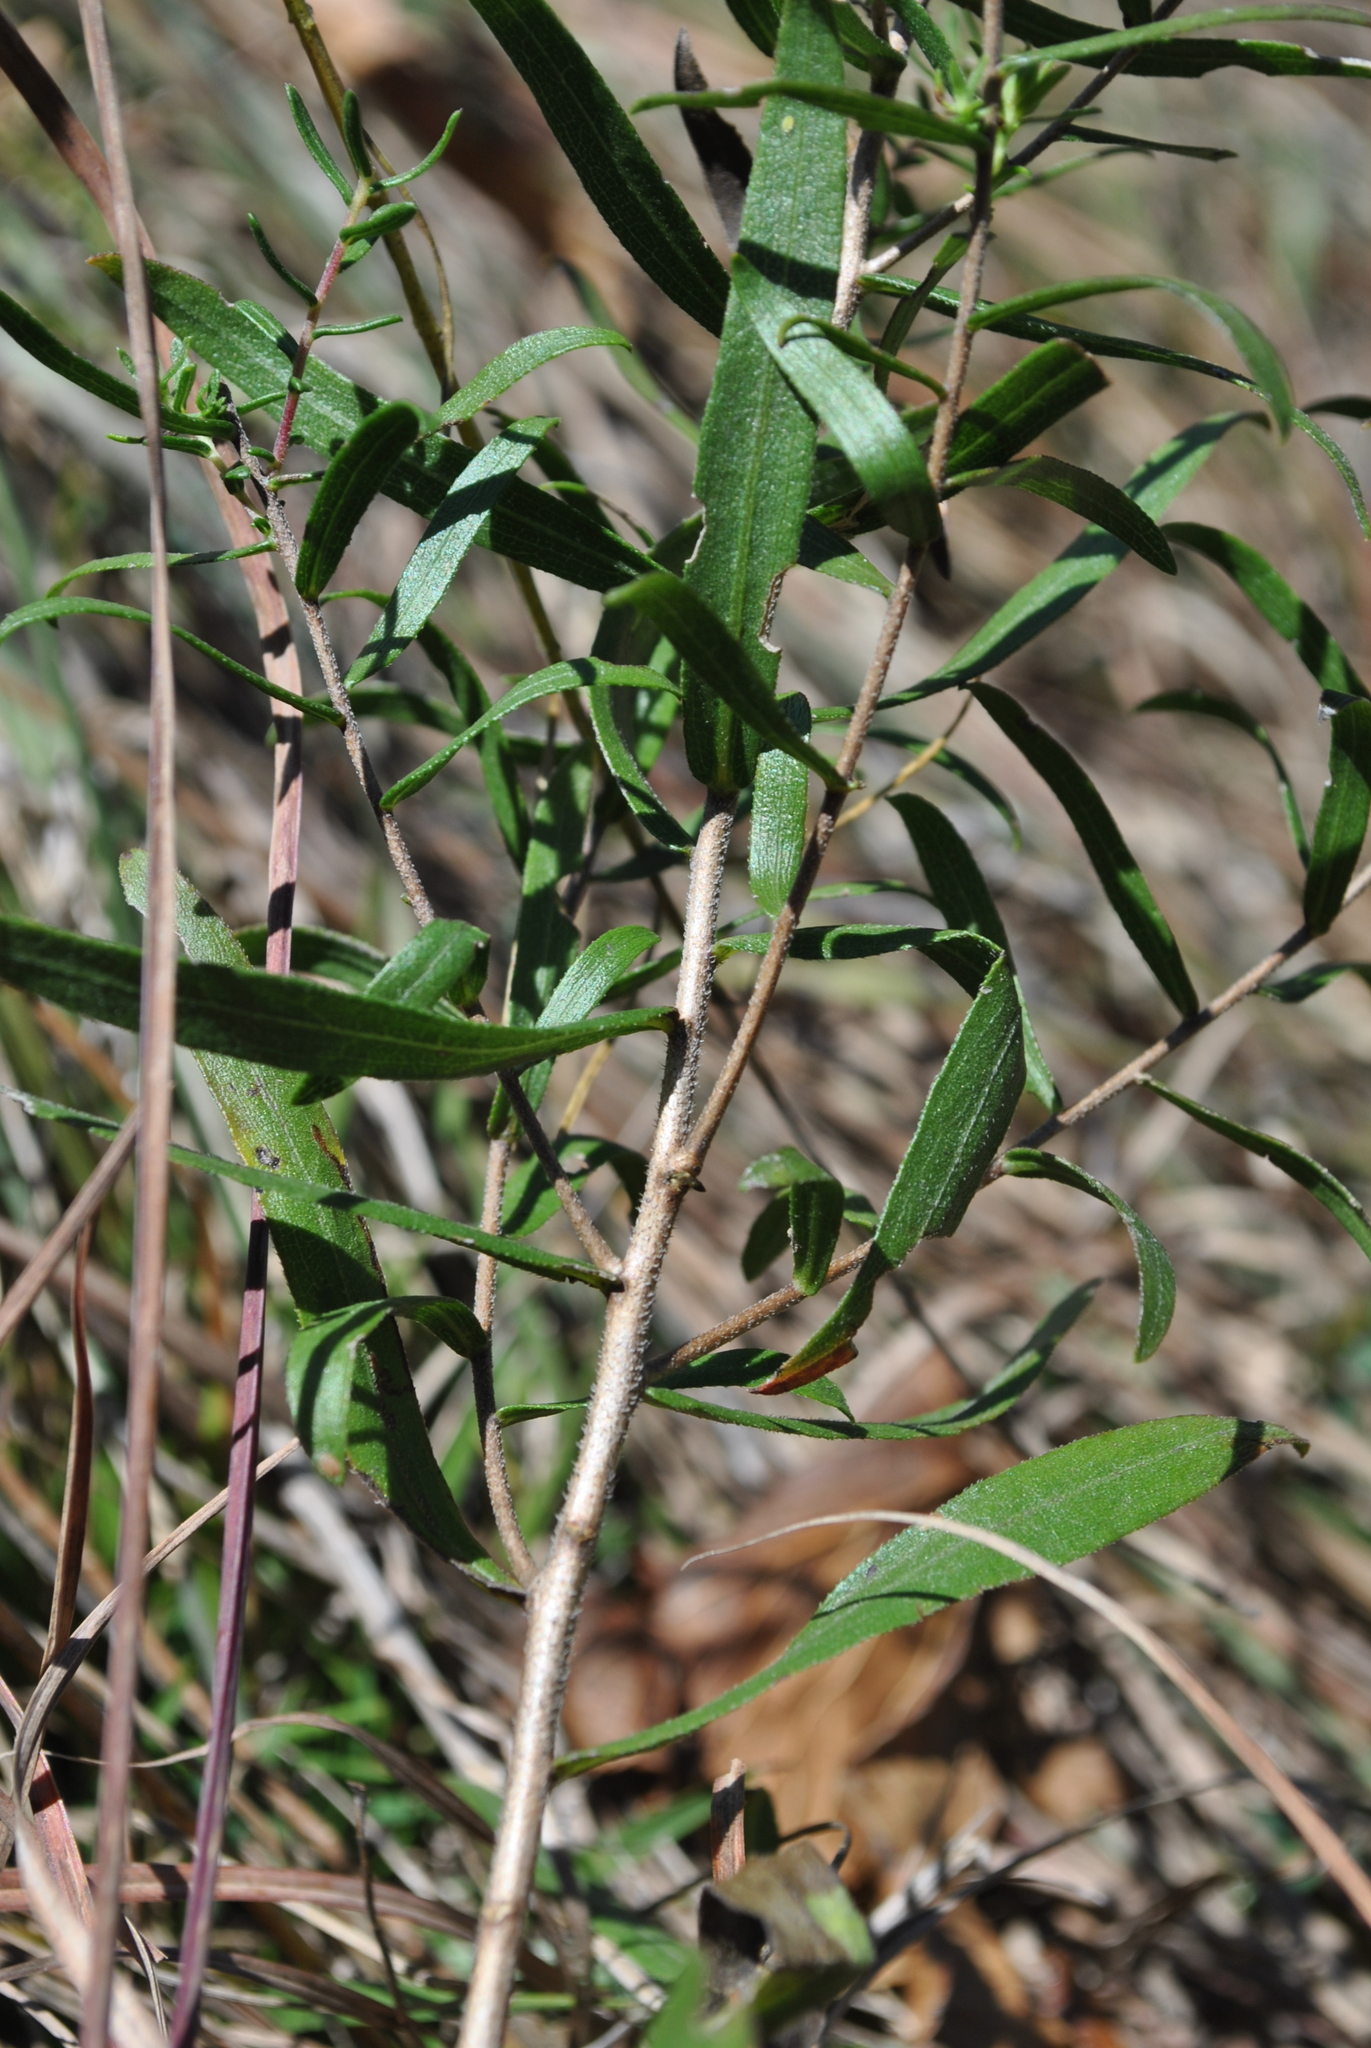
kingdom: Plantae
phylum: Tracheophyta
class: Magnoliopsida
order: Asterales
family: Asteraceae
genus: Symphyotrichum
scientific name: Symphyotrichum oblongifolium
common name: Aromatic aster
